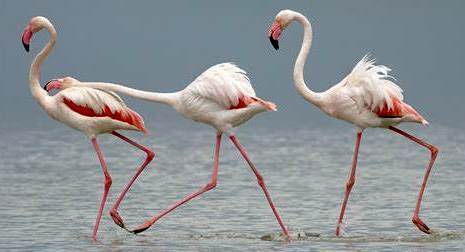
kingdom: Animalia
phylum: Chordata
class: Aves
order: Phoenicopteriformes
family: Phoenicopteridae
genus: Phoenicopterus
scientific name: Phoenicopterus roseus
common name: Greater flamingo
